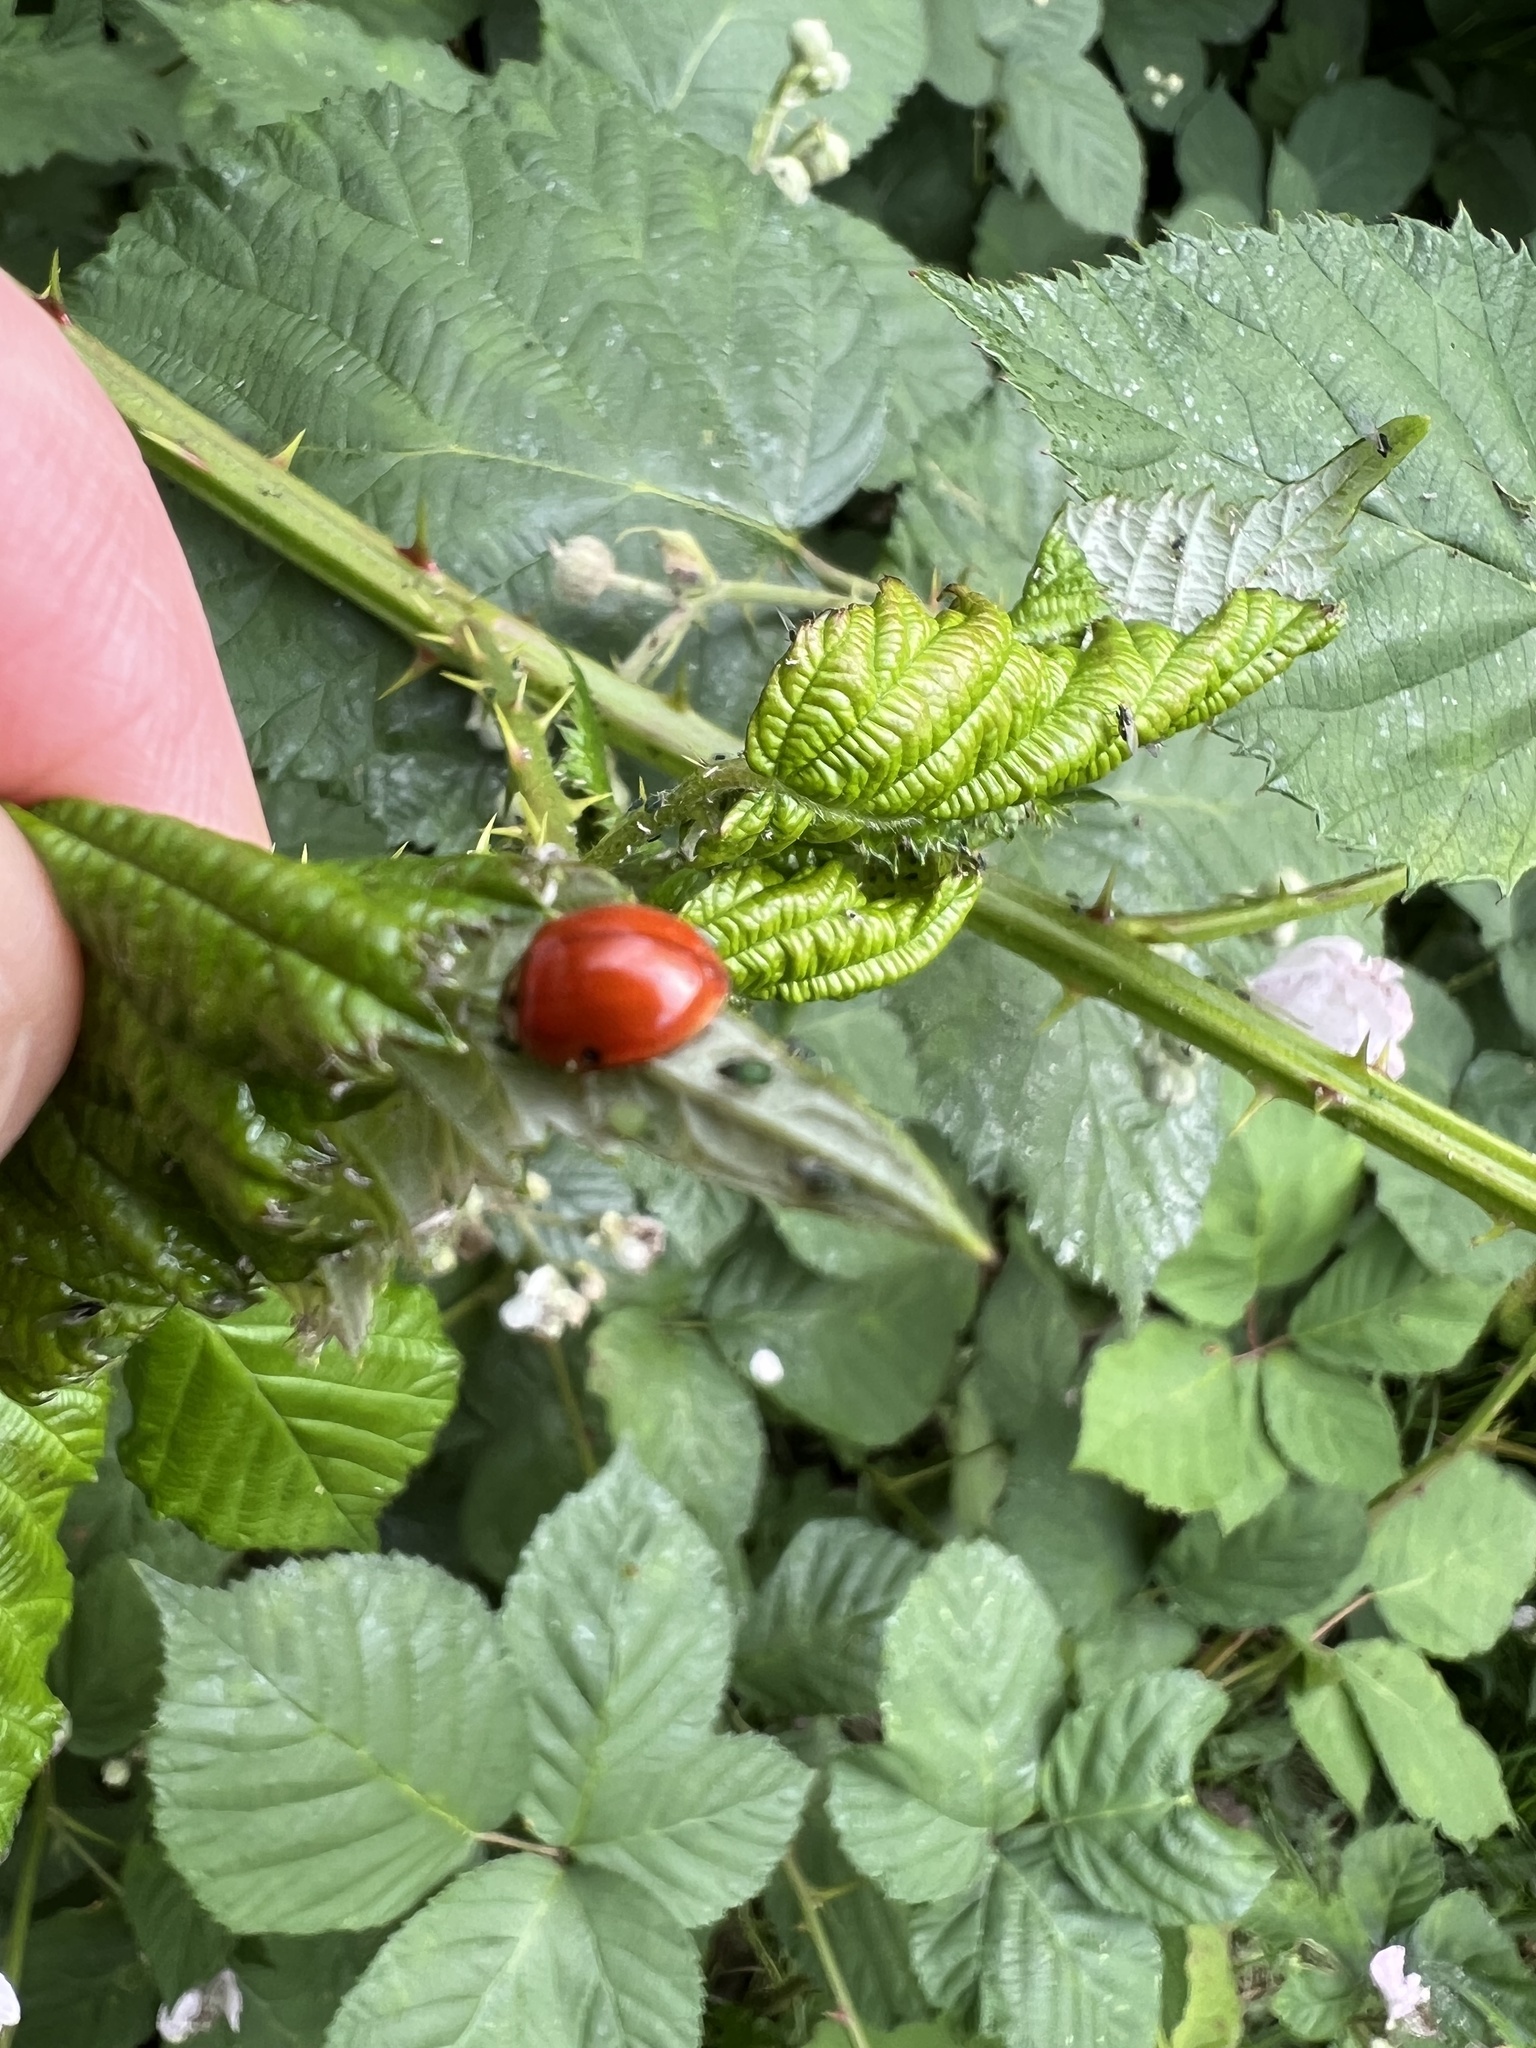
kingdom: Animalia
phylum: Arthropoda
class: Insecta
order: Coleoptera
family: Coccinellidae
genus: Harmonia
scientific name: Harmonia axyridis
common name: Harlequin ladybird
